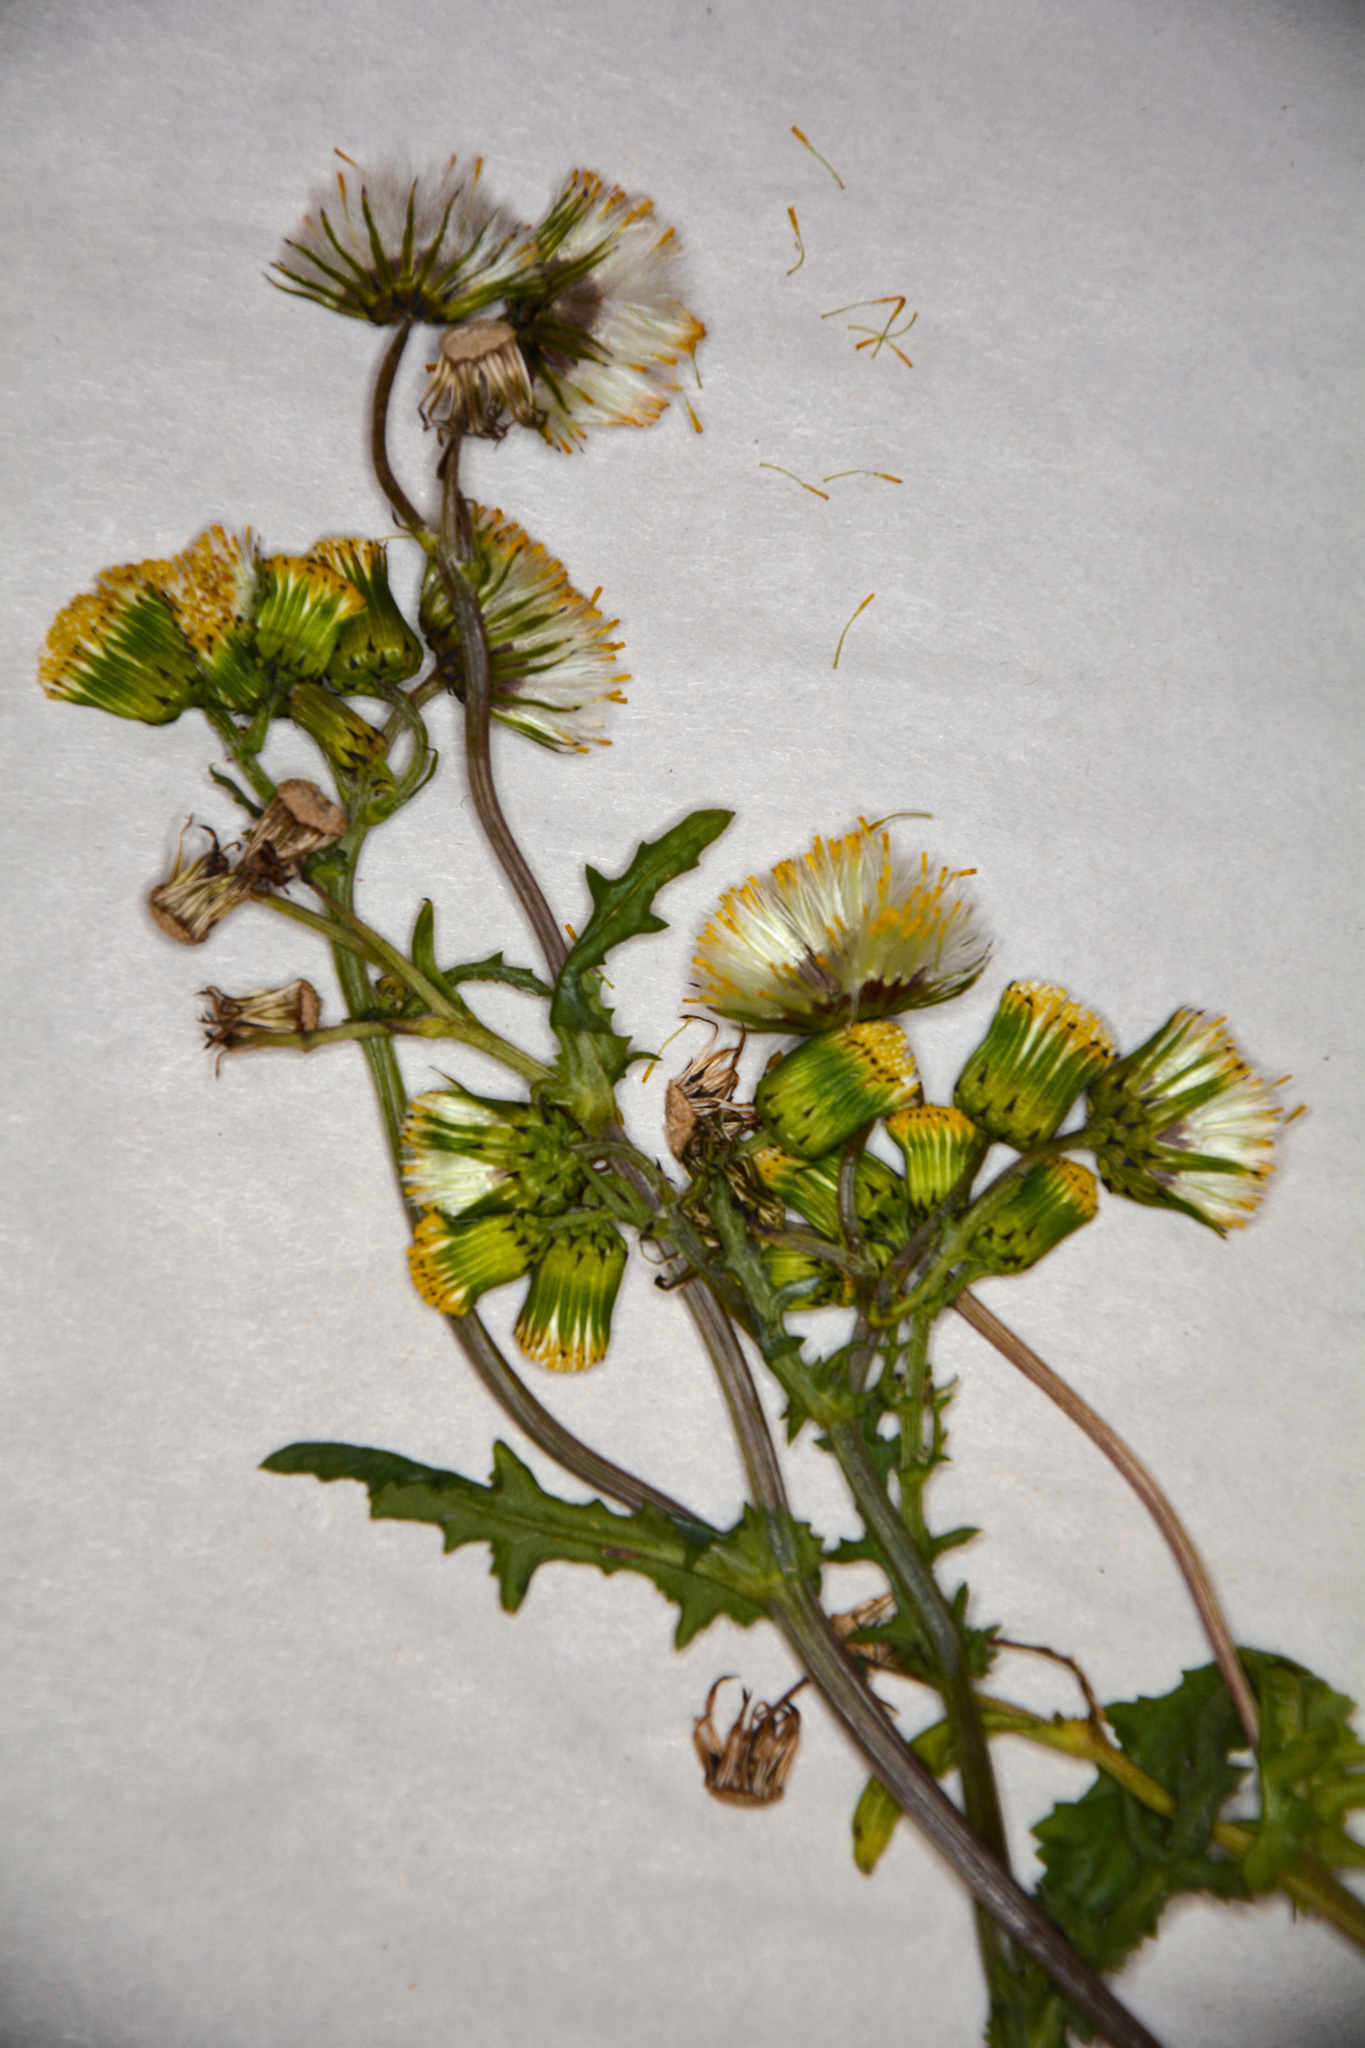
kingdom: Plantae
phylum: Tracheophyta
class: Magnoliopsida
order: Asterales
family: Asteraceae
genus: Senecio
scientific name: Senecio vulgaris
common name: Old-man-in-the-spring
